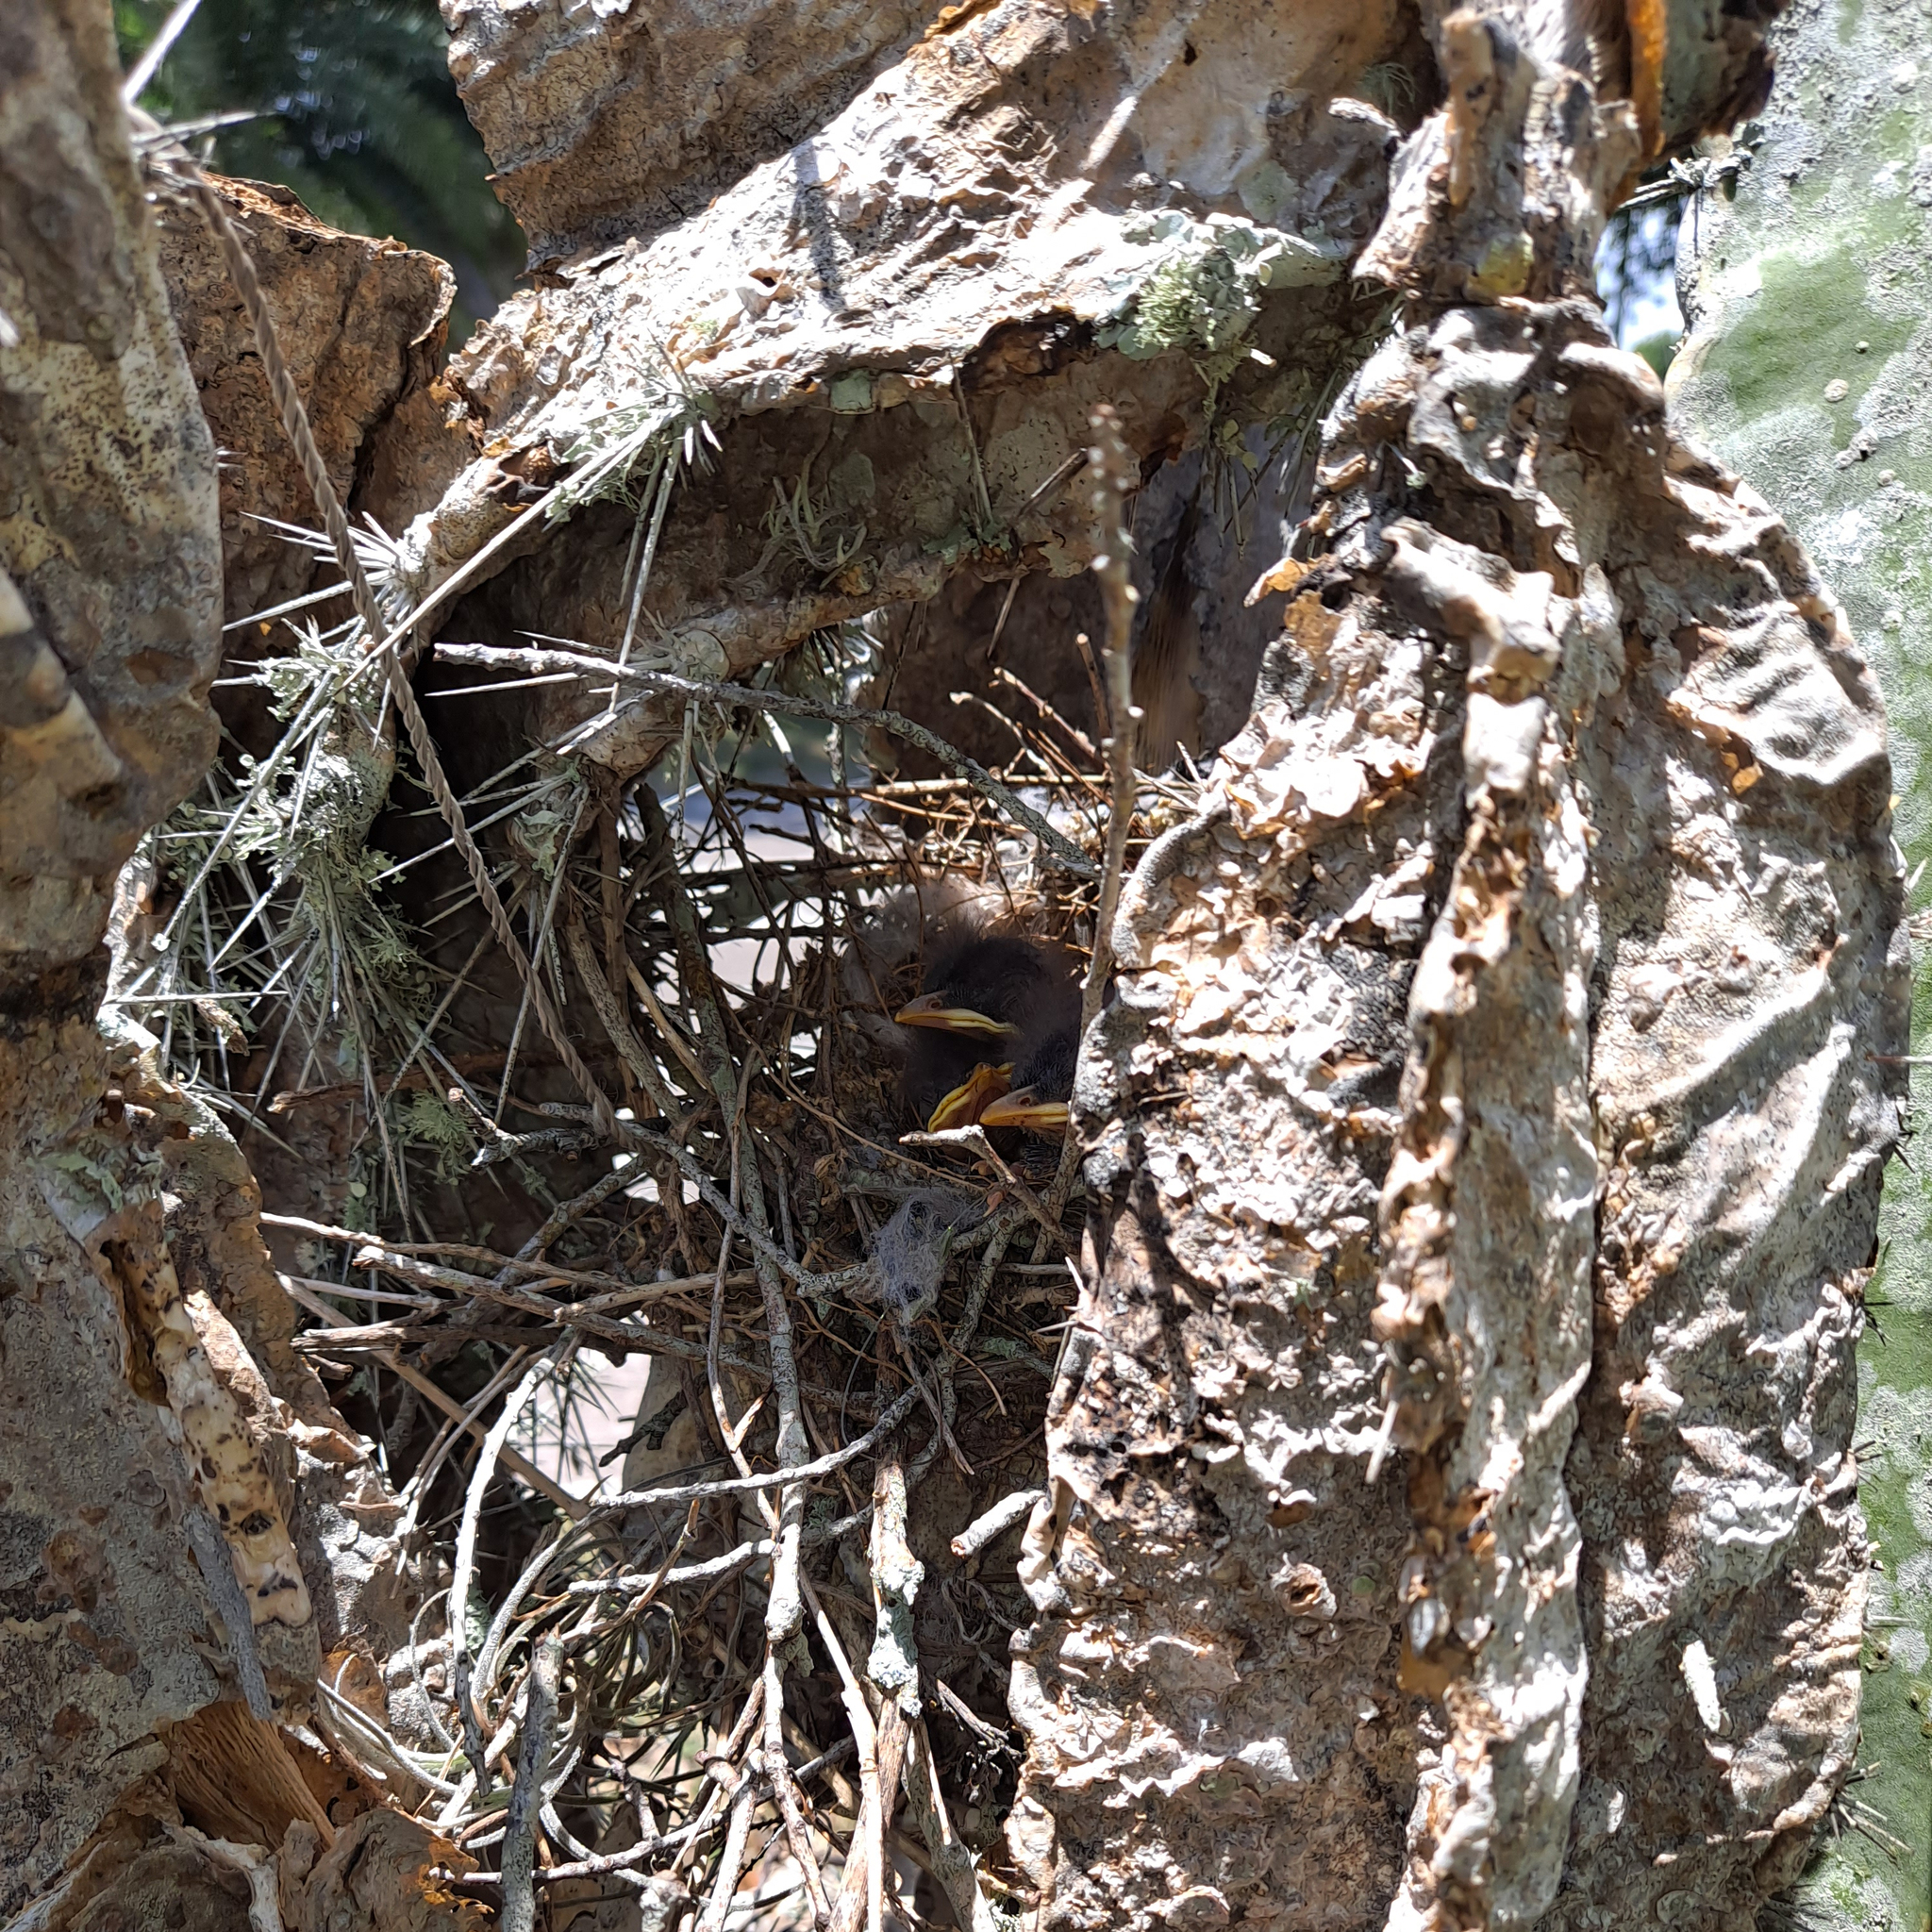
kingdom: Animalia
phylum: Chordata
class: Aves
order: Passeriformes
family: Mimidae
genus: Mimus
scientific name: Mimus polyglottos
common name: Northern mockingbird
